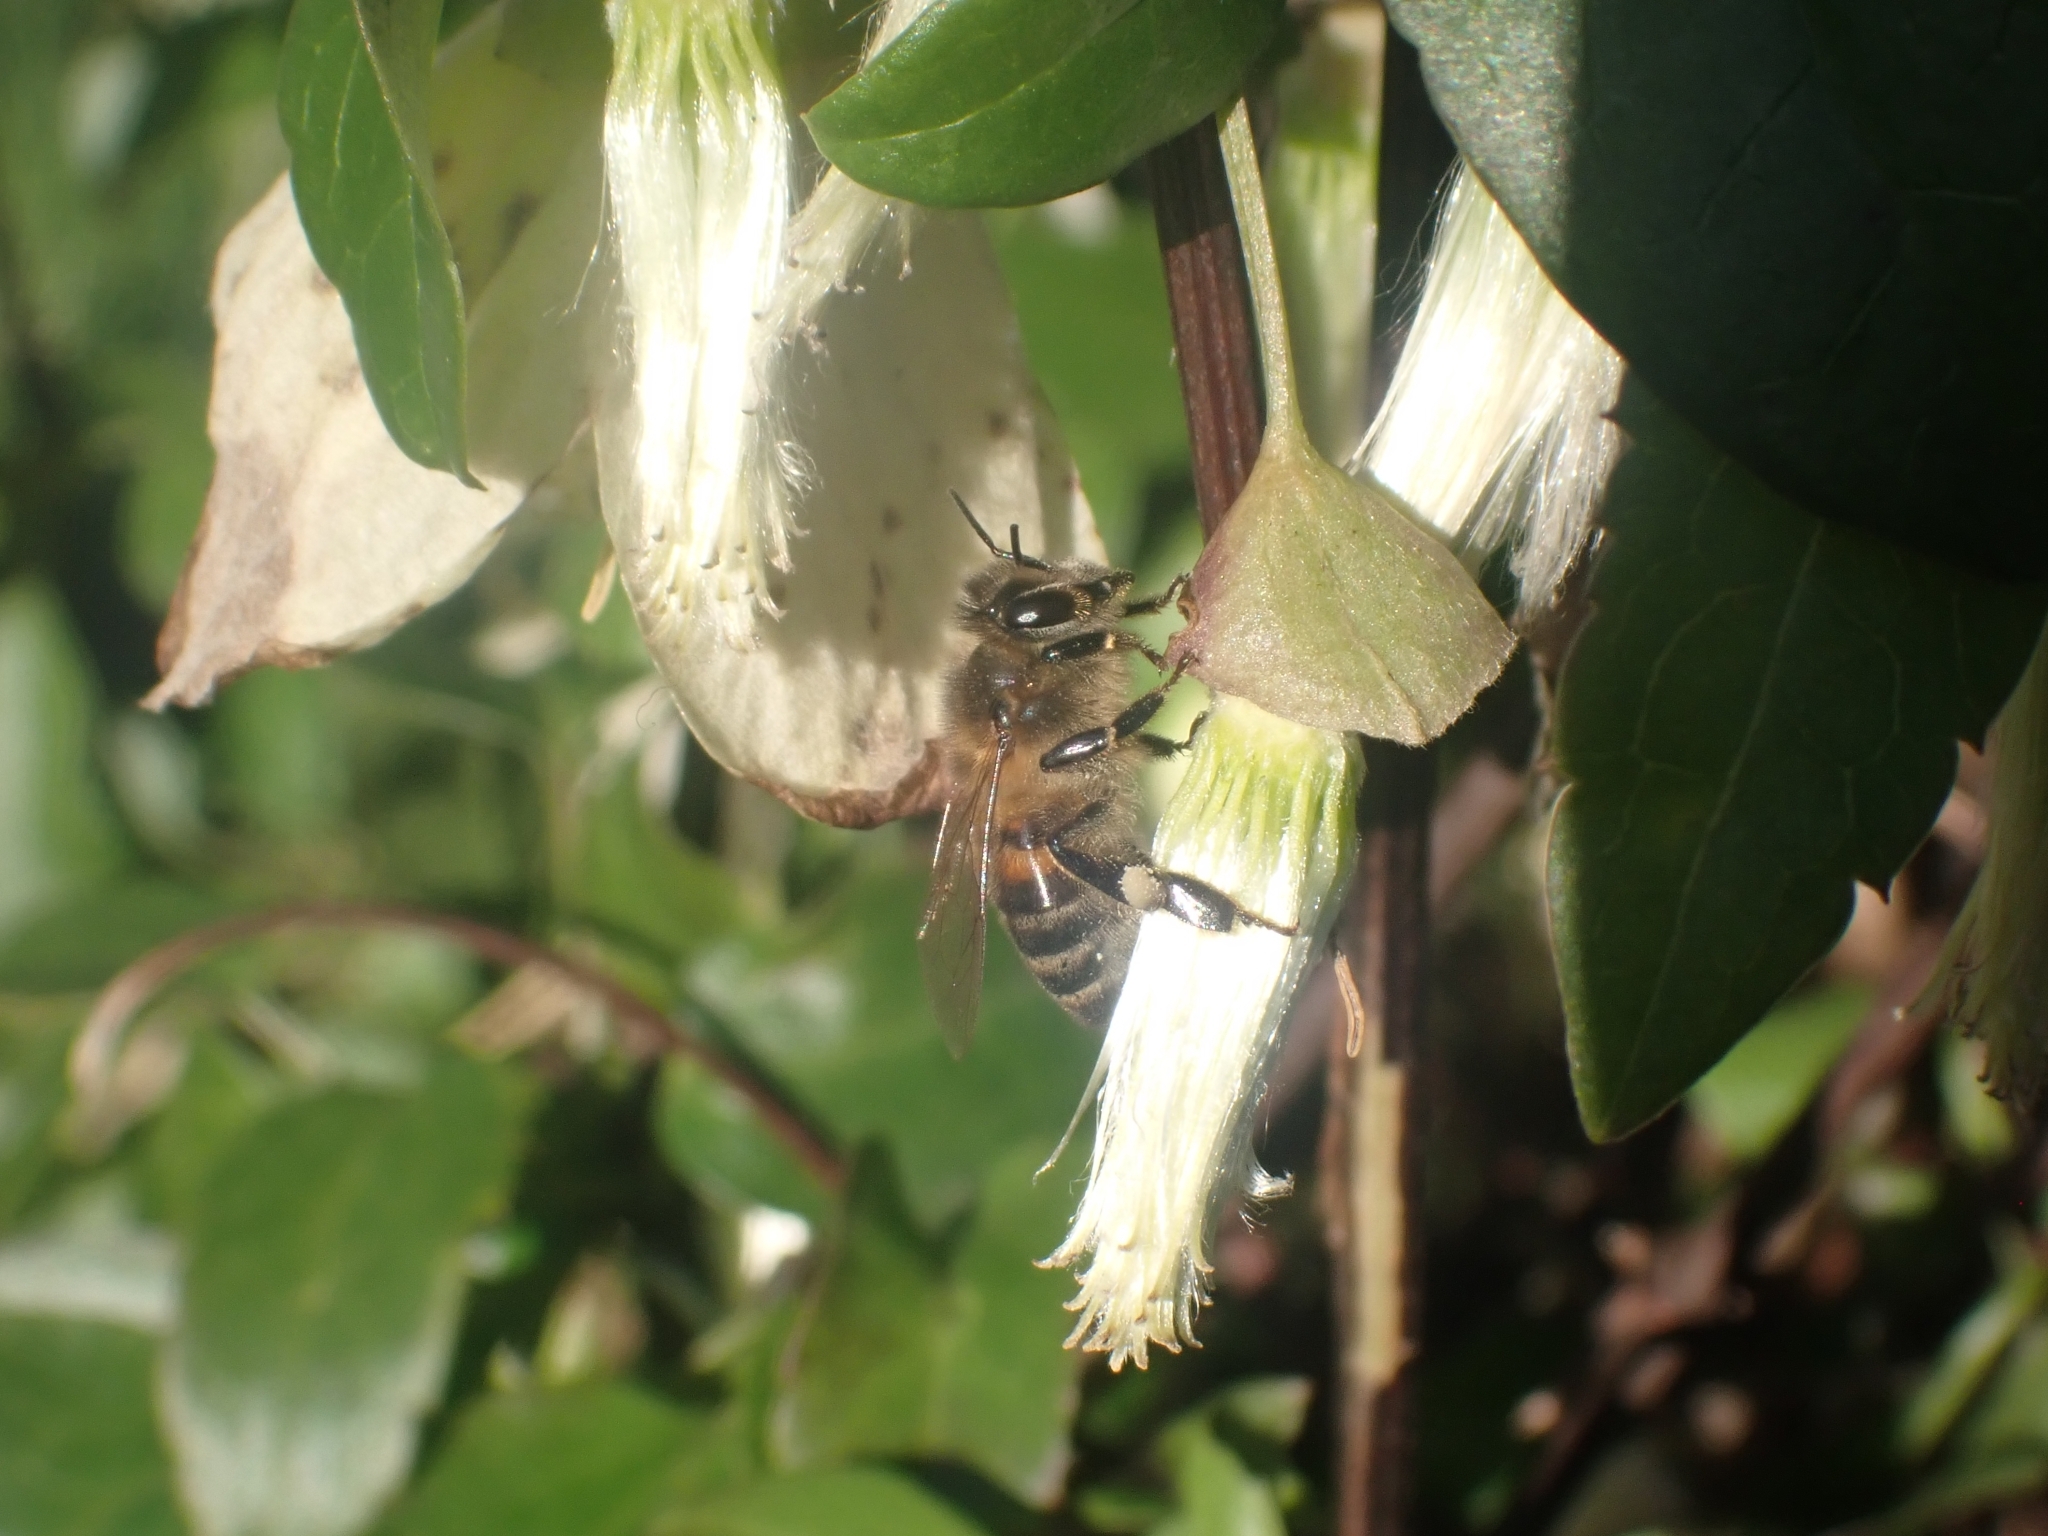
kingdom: Animalia
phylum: Arthropoda
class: Insecta
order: Hymenoptera
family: Apidae
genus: Apis
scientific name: Apis mellifera
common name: Honey bee
